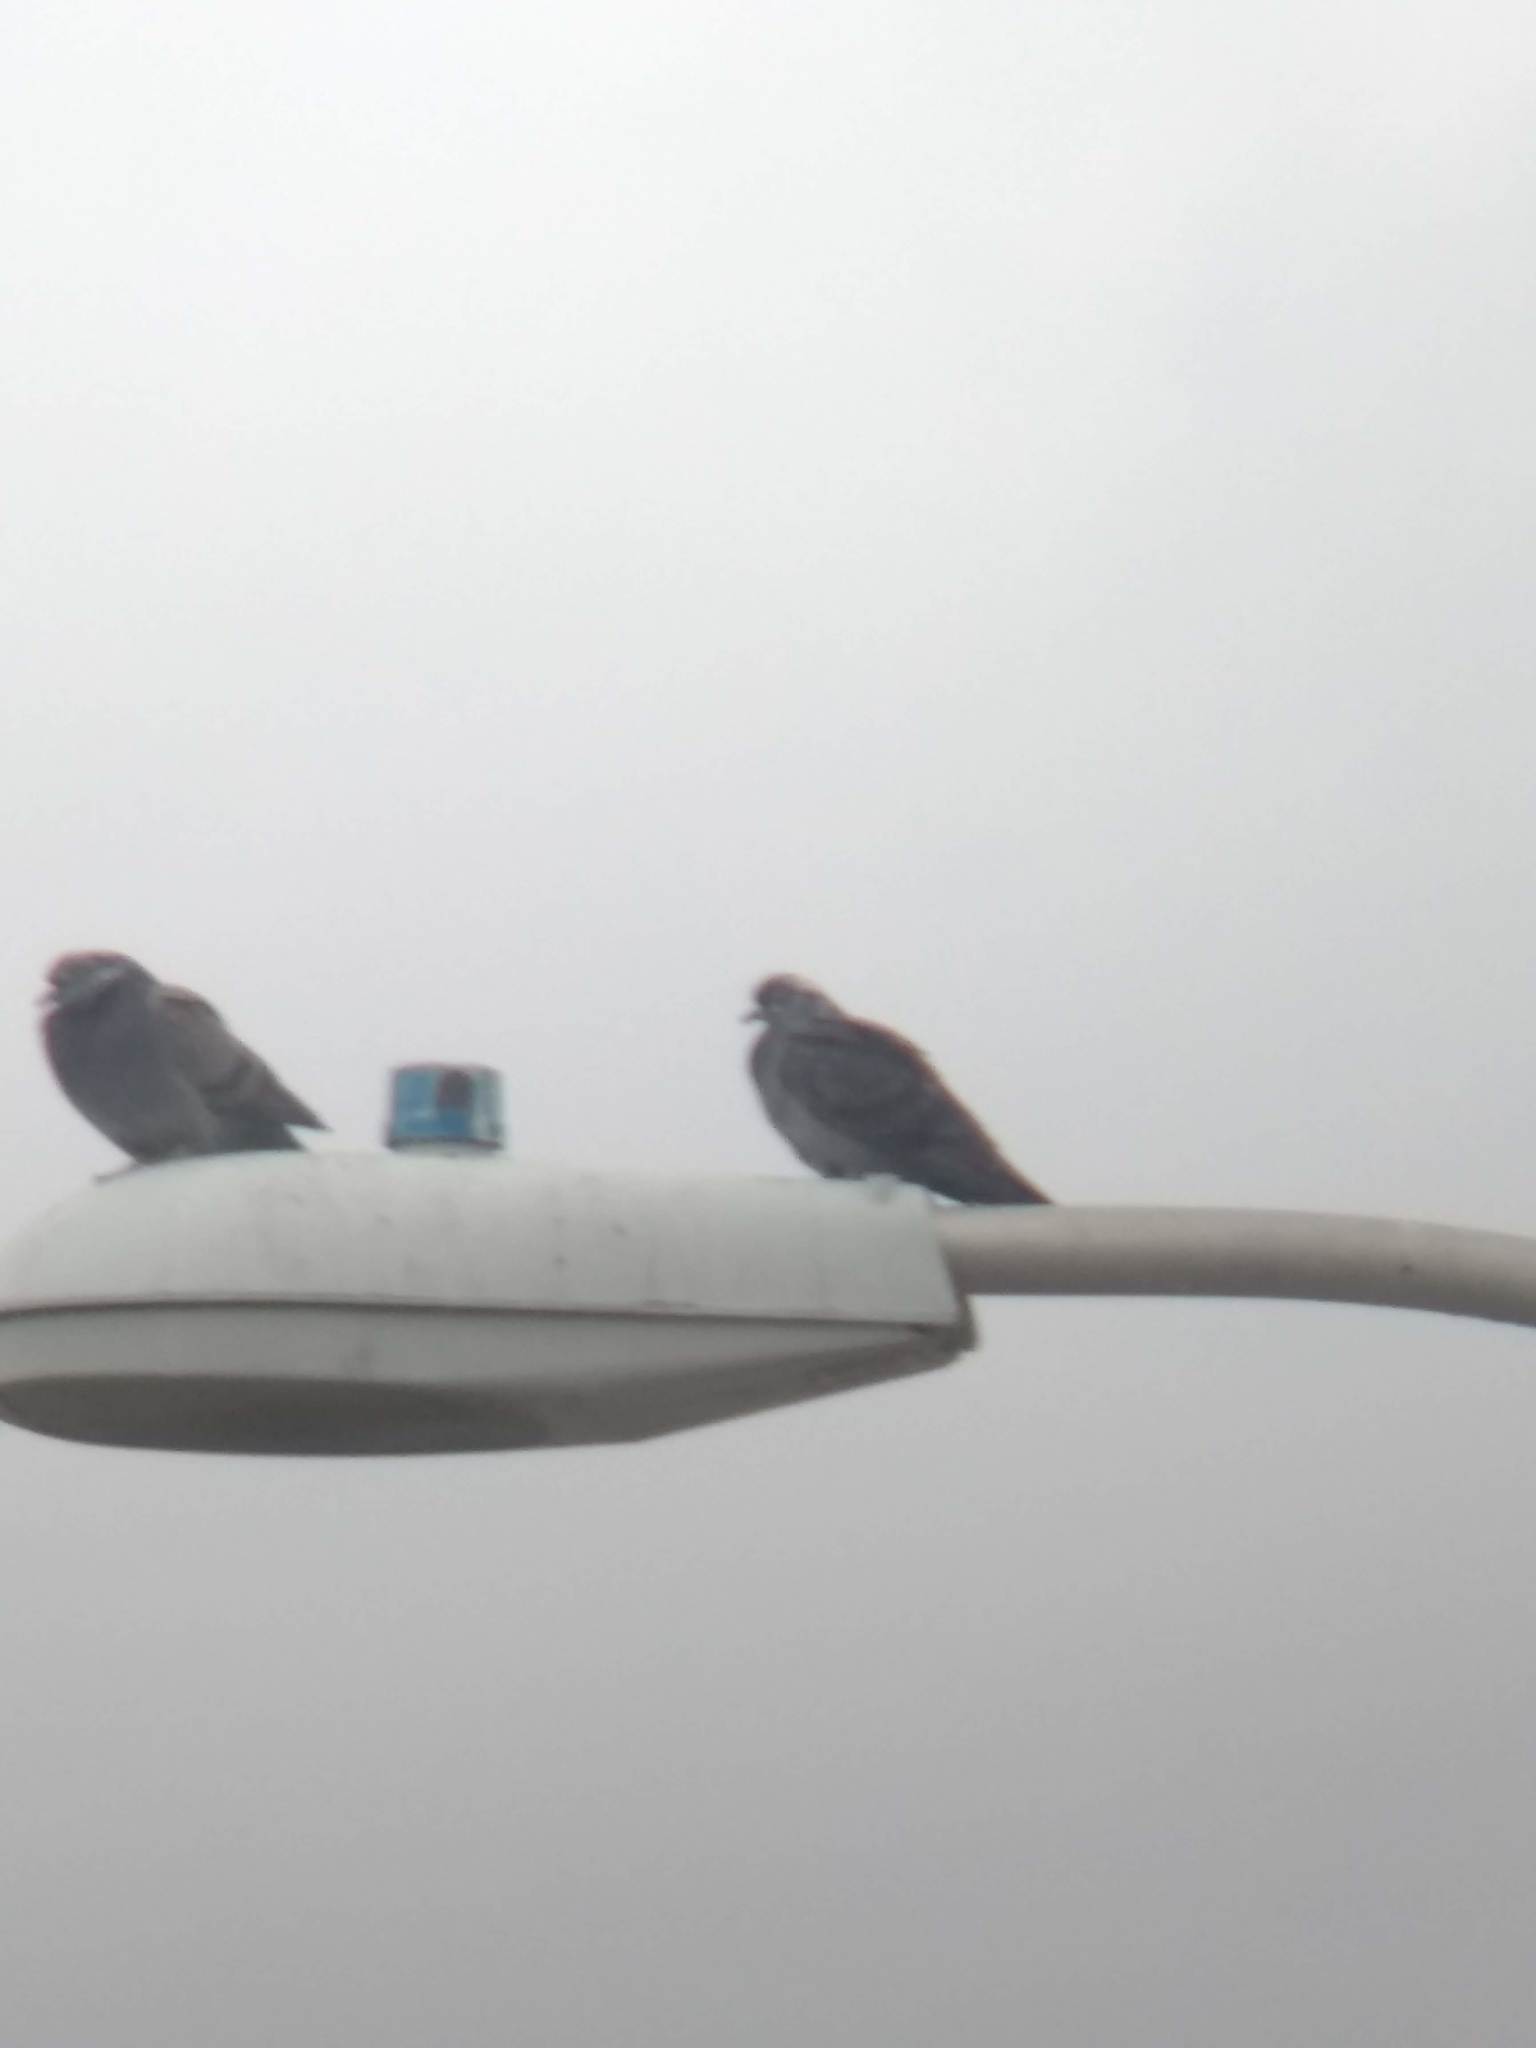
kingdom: Animalia
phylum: Chordata
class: Aves
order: Columbiformes
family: Columbidae
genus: Columba
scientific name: Columba livia
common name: Rock pigeon
